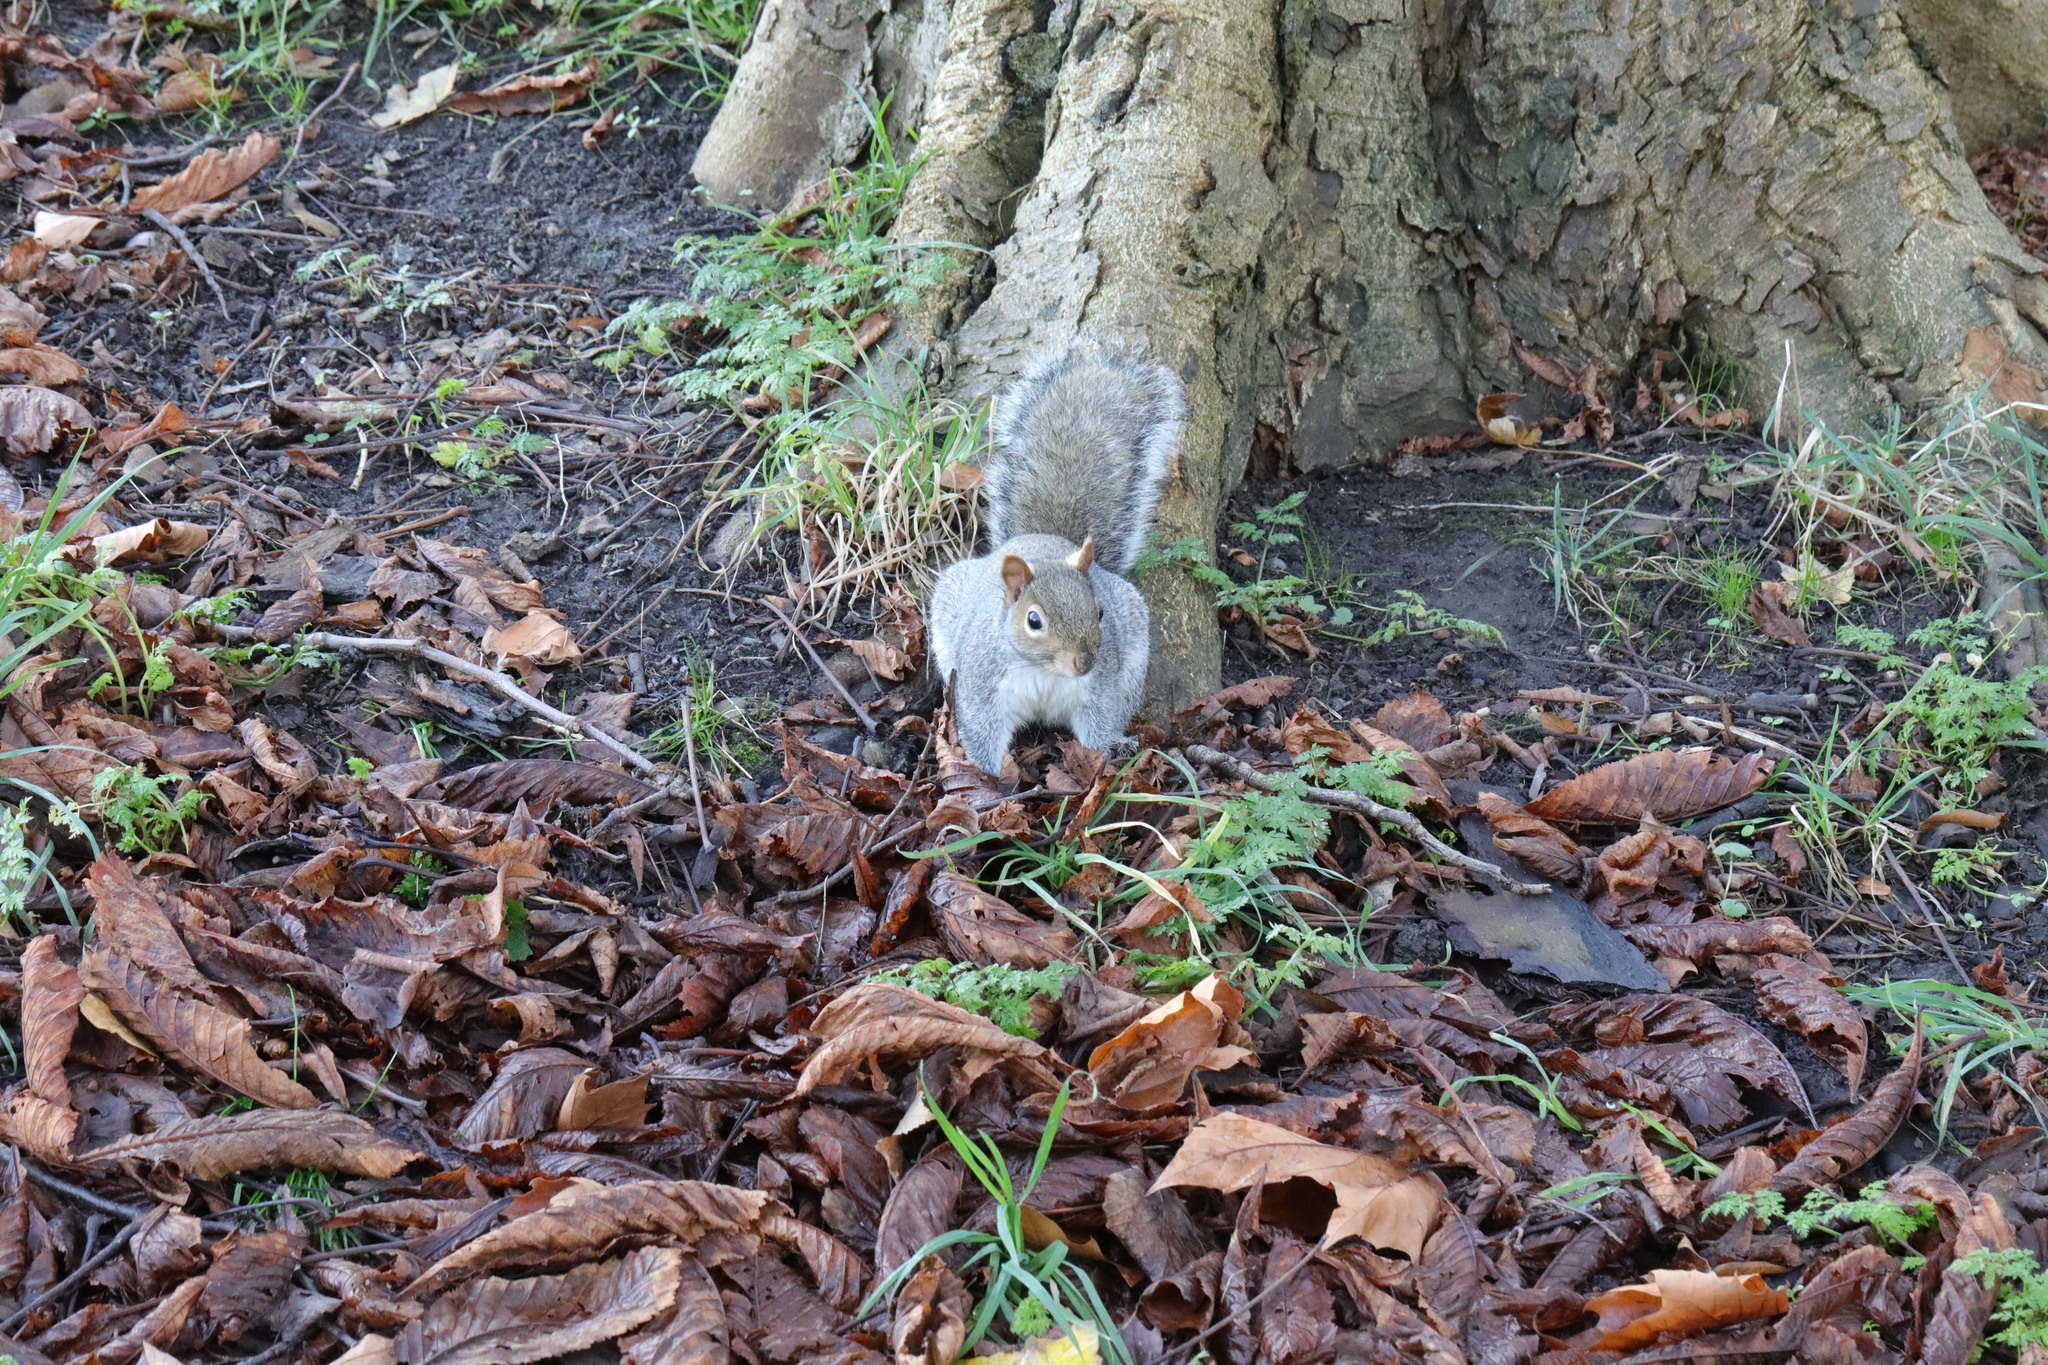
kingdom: Animalia
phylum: Chordata
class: Mammalia
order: Rodentia
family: Sciuridae
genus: Sciurus
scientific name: Sciurus carolinensis
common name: Eastern gray squirrel
